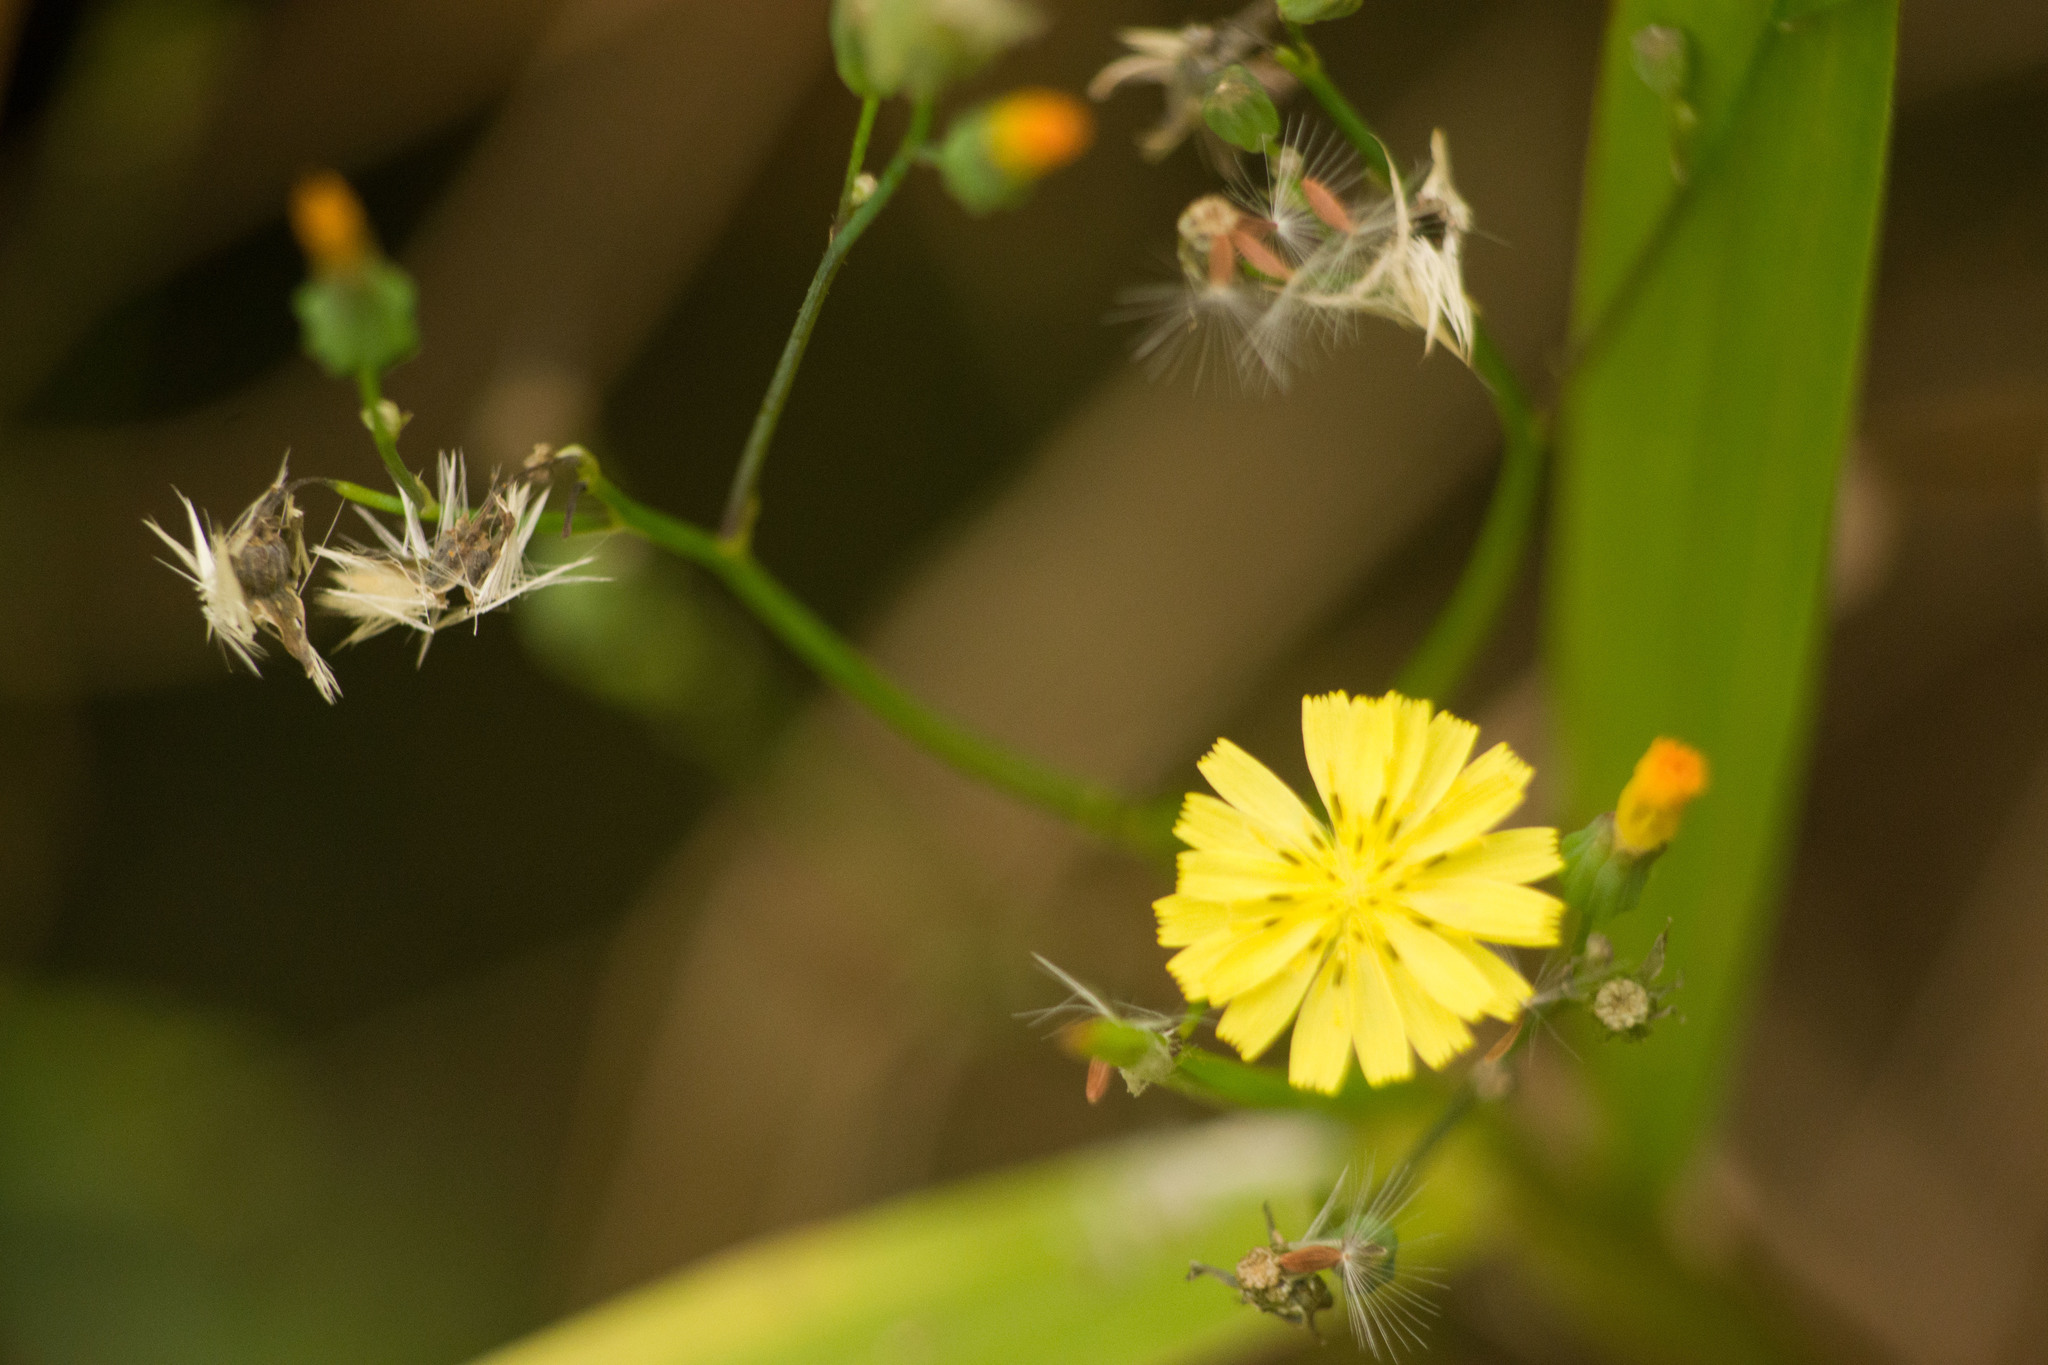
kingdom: Plantae
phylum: Tracheophyta
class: Magnoliopsida
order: Asterales
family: Asteraceae
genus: Youngia
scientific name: Youngia japonica
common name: Oriental false hawksbeard
